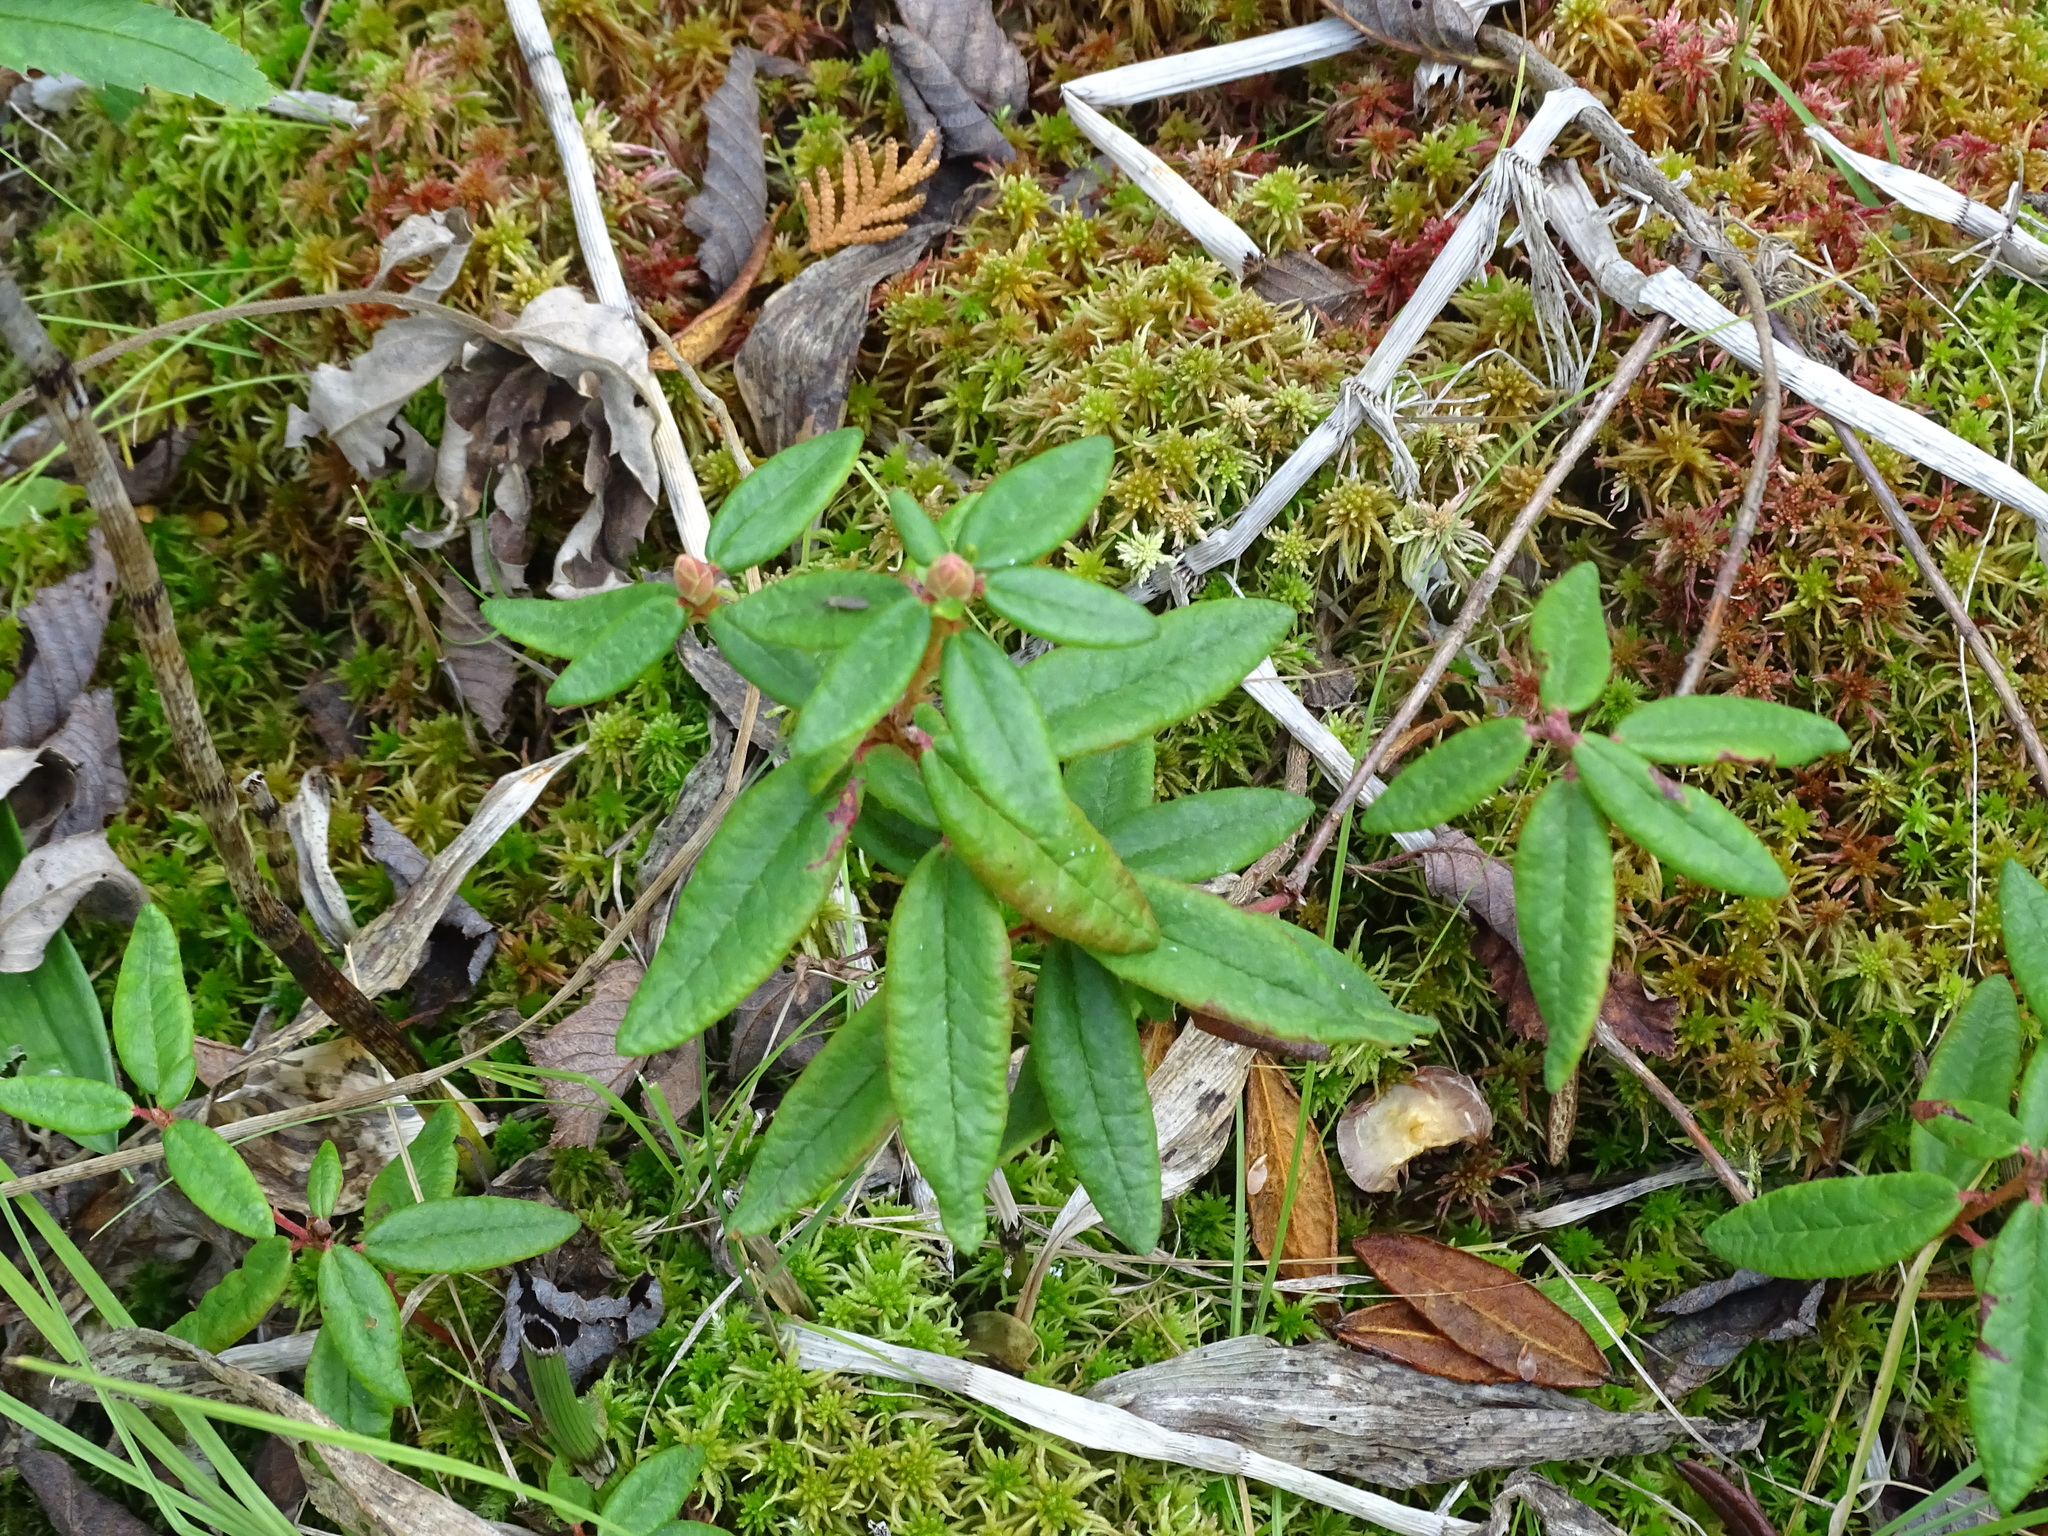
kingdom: Plantae
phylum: Tracheophyta
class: Magnoliopsida
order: Ericales
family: Ericaceae
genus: Rhododendron
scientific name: Rhododendron groenlandicum
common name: Bog labrador tea
